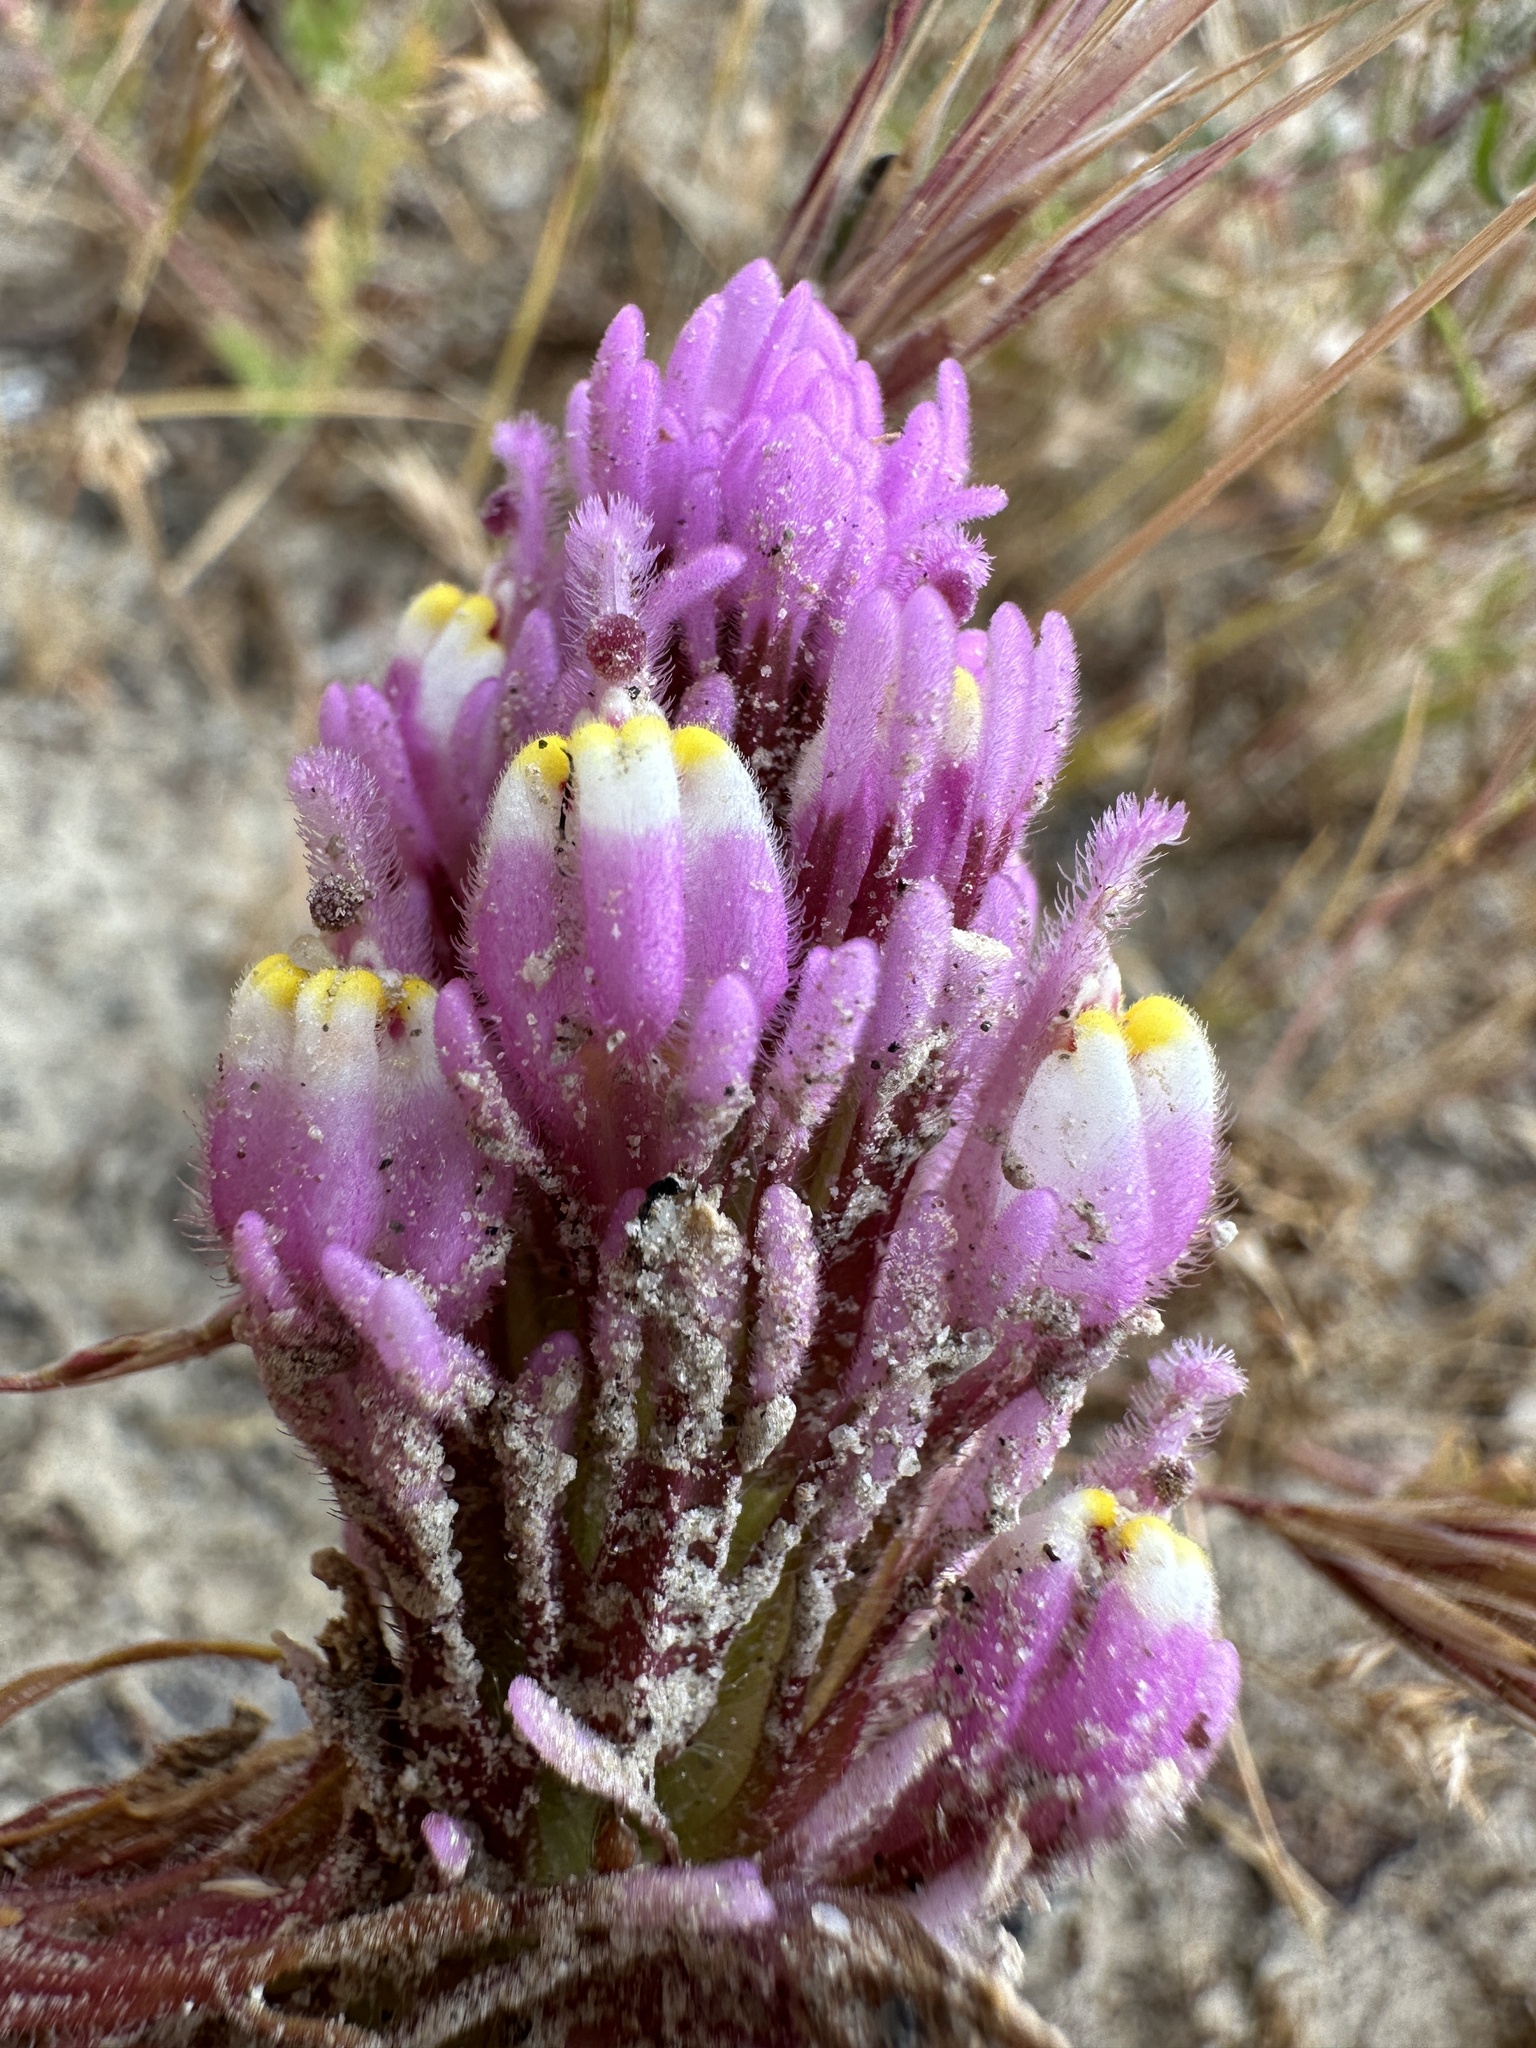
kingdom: Plantae
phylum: Tracheophyta
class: Magnoliopsida
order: Lamiales
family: Orobanchaceae
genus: Castilleja
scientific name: Castilleja exserta
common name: Purple owl-clover
